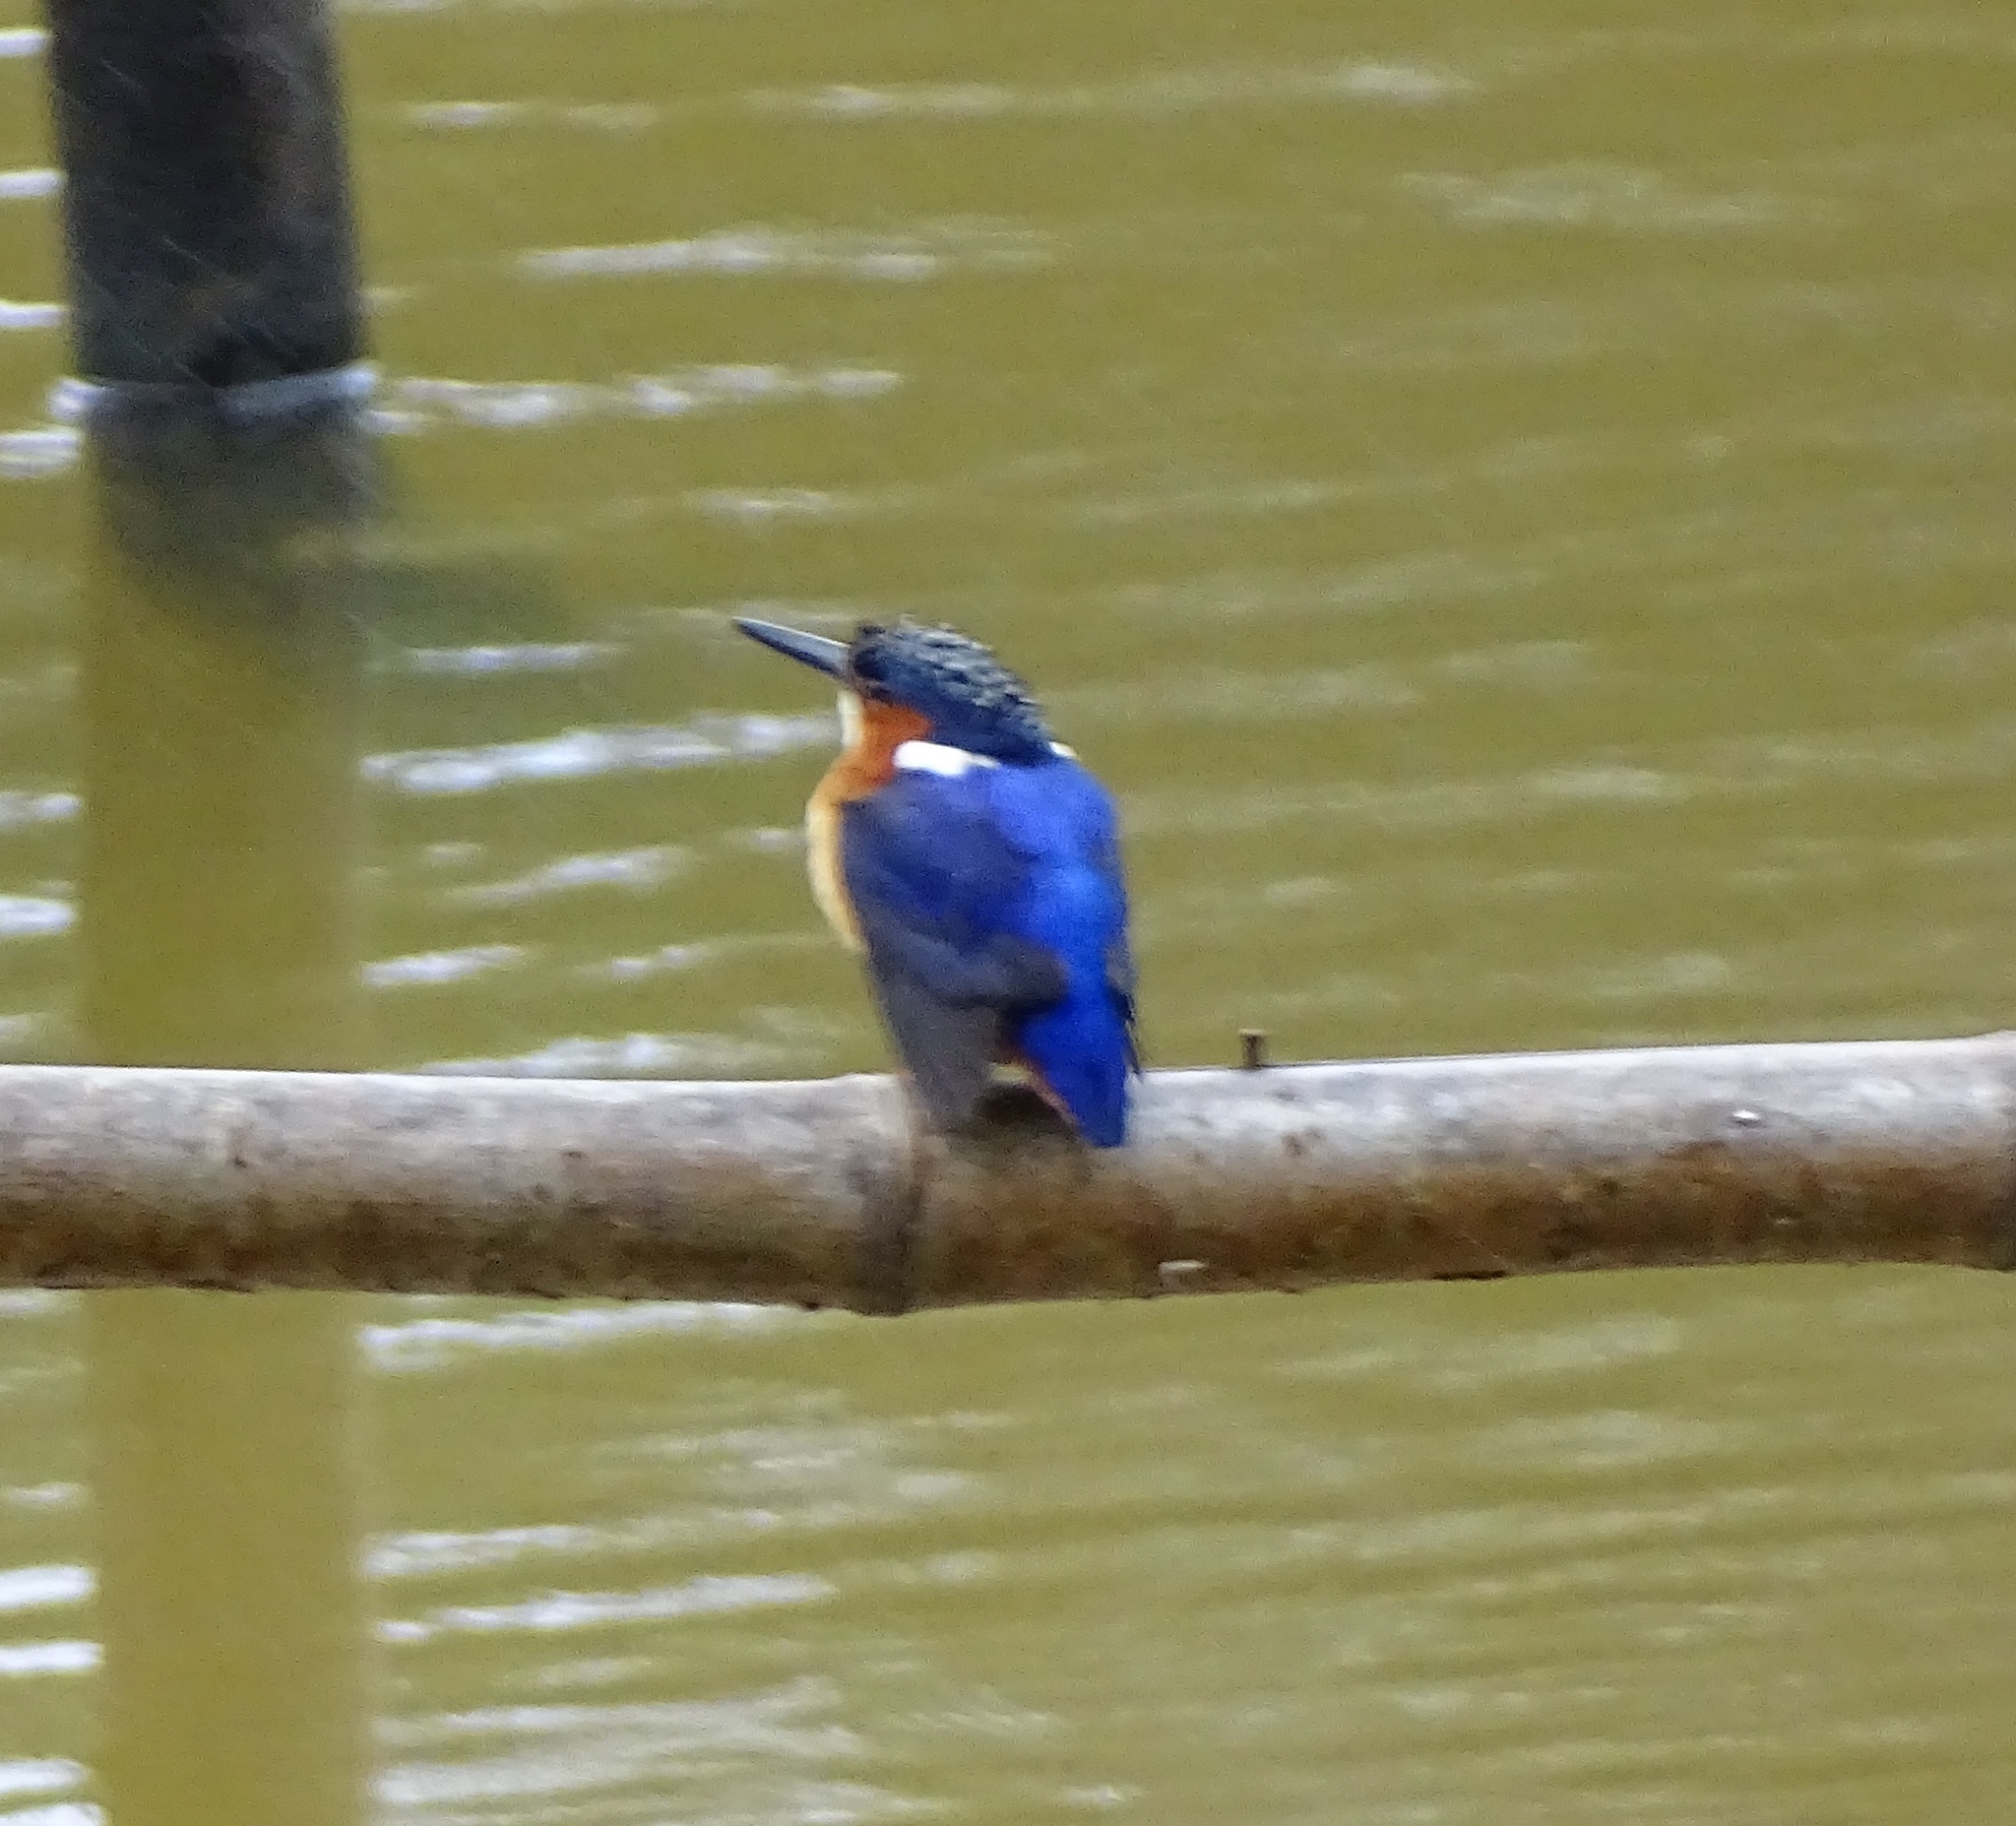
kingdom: Animalia
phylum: Chordata
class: Aves
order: Coraciiformes
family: Alcedinidae
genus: Corythornis
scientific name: Corythornis vintsioides
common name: Malagasy kingfisher
